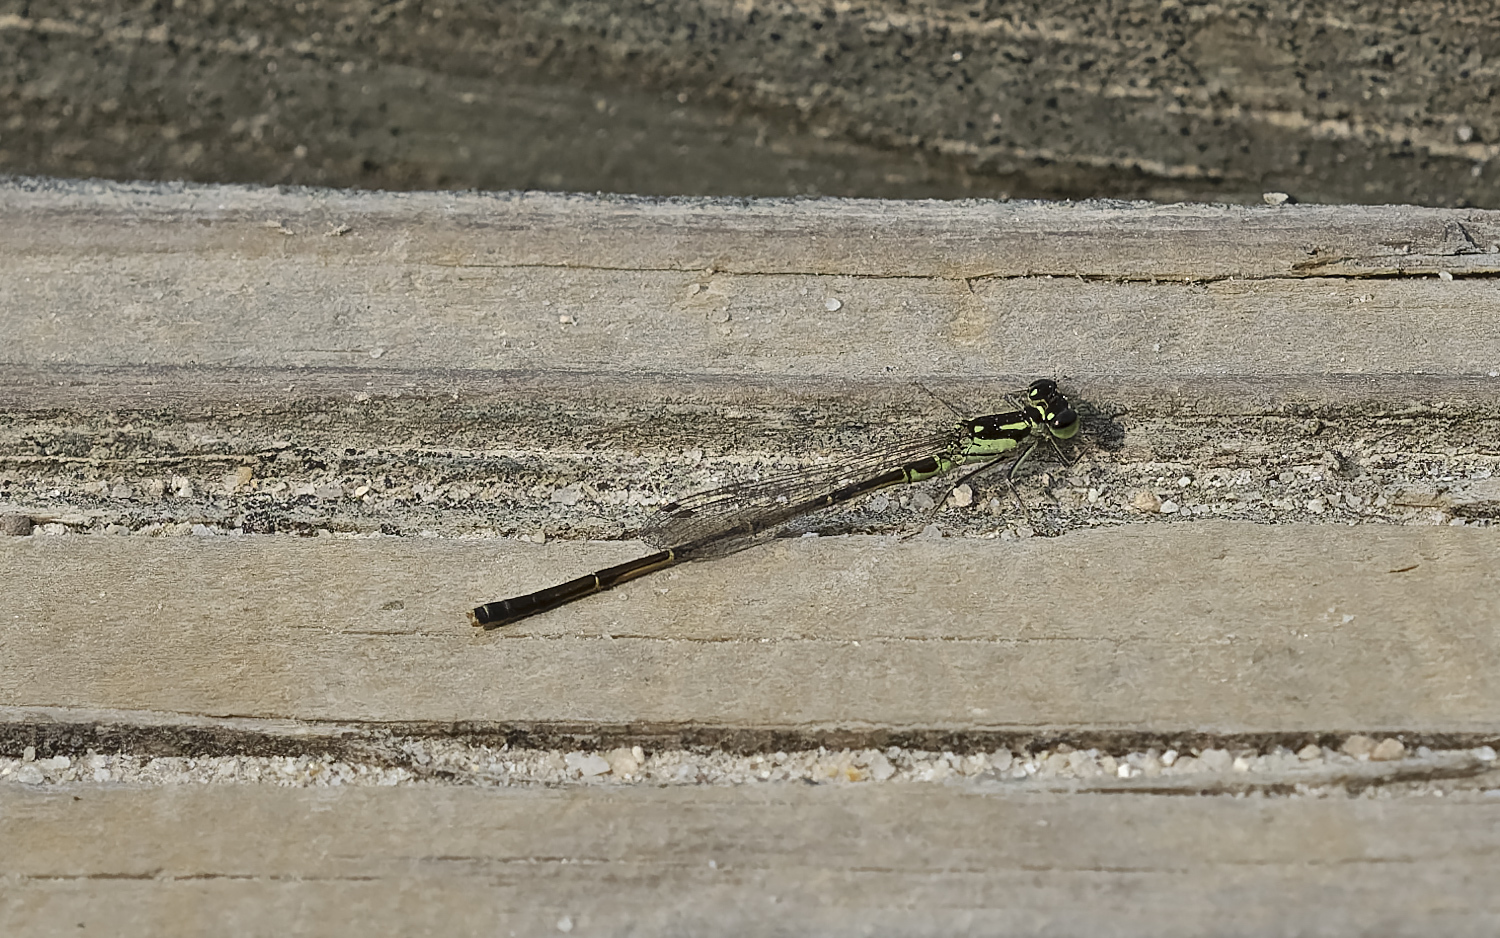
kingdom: Animalia
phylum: Arthropoda
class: Insecta
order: Odonata
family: Coenagrionidae
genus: Ischnura
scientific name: Ischnura posita
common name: Fragile forktail
